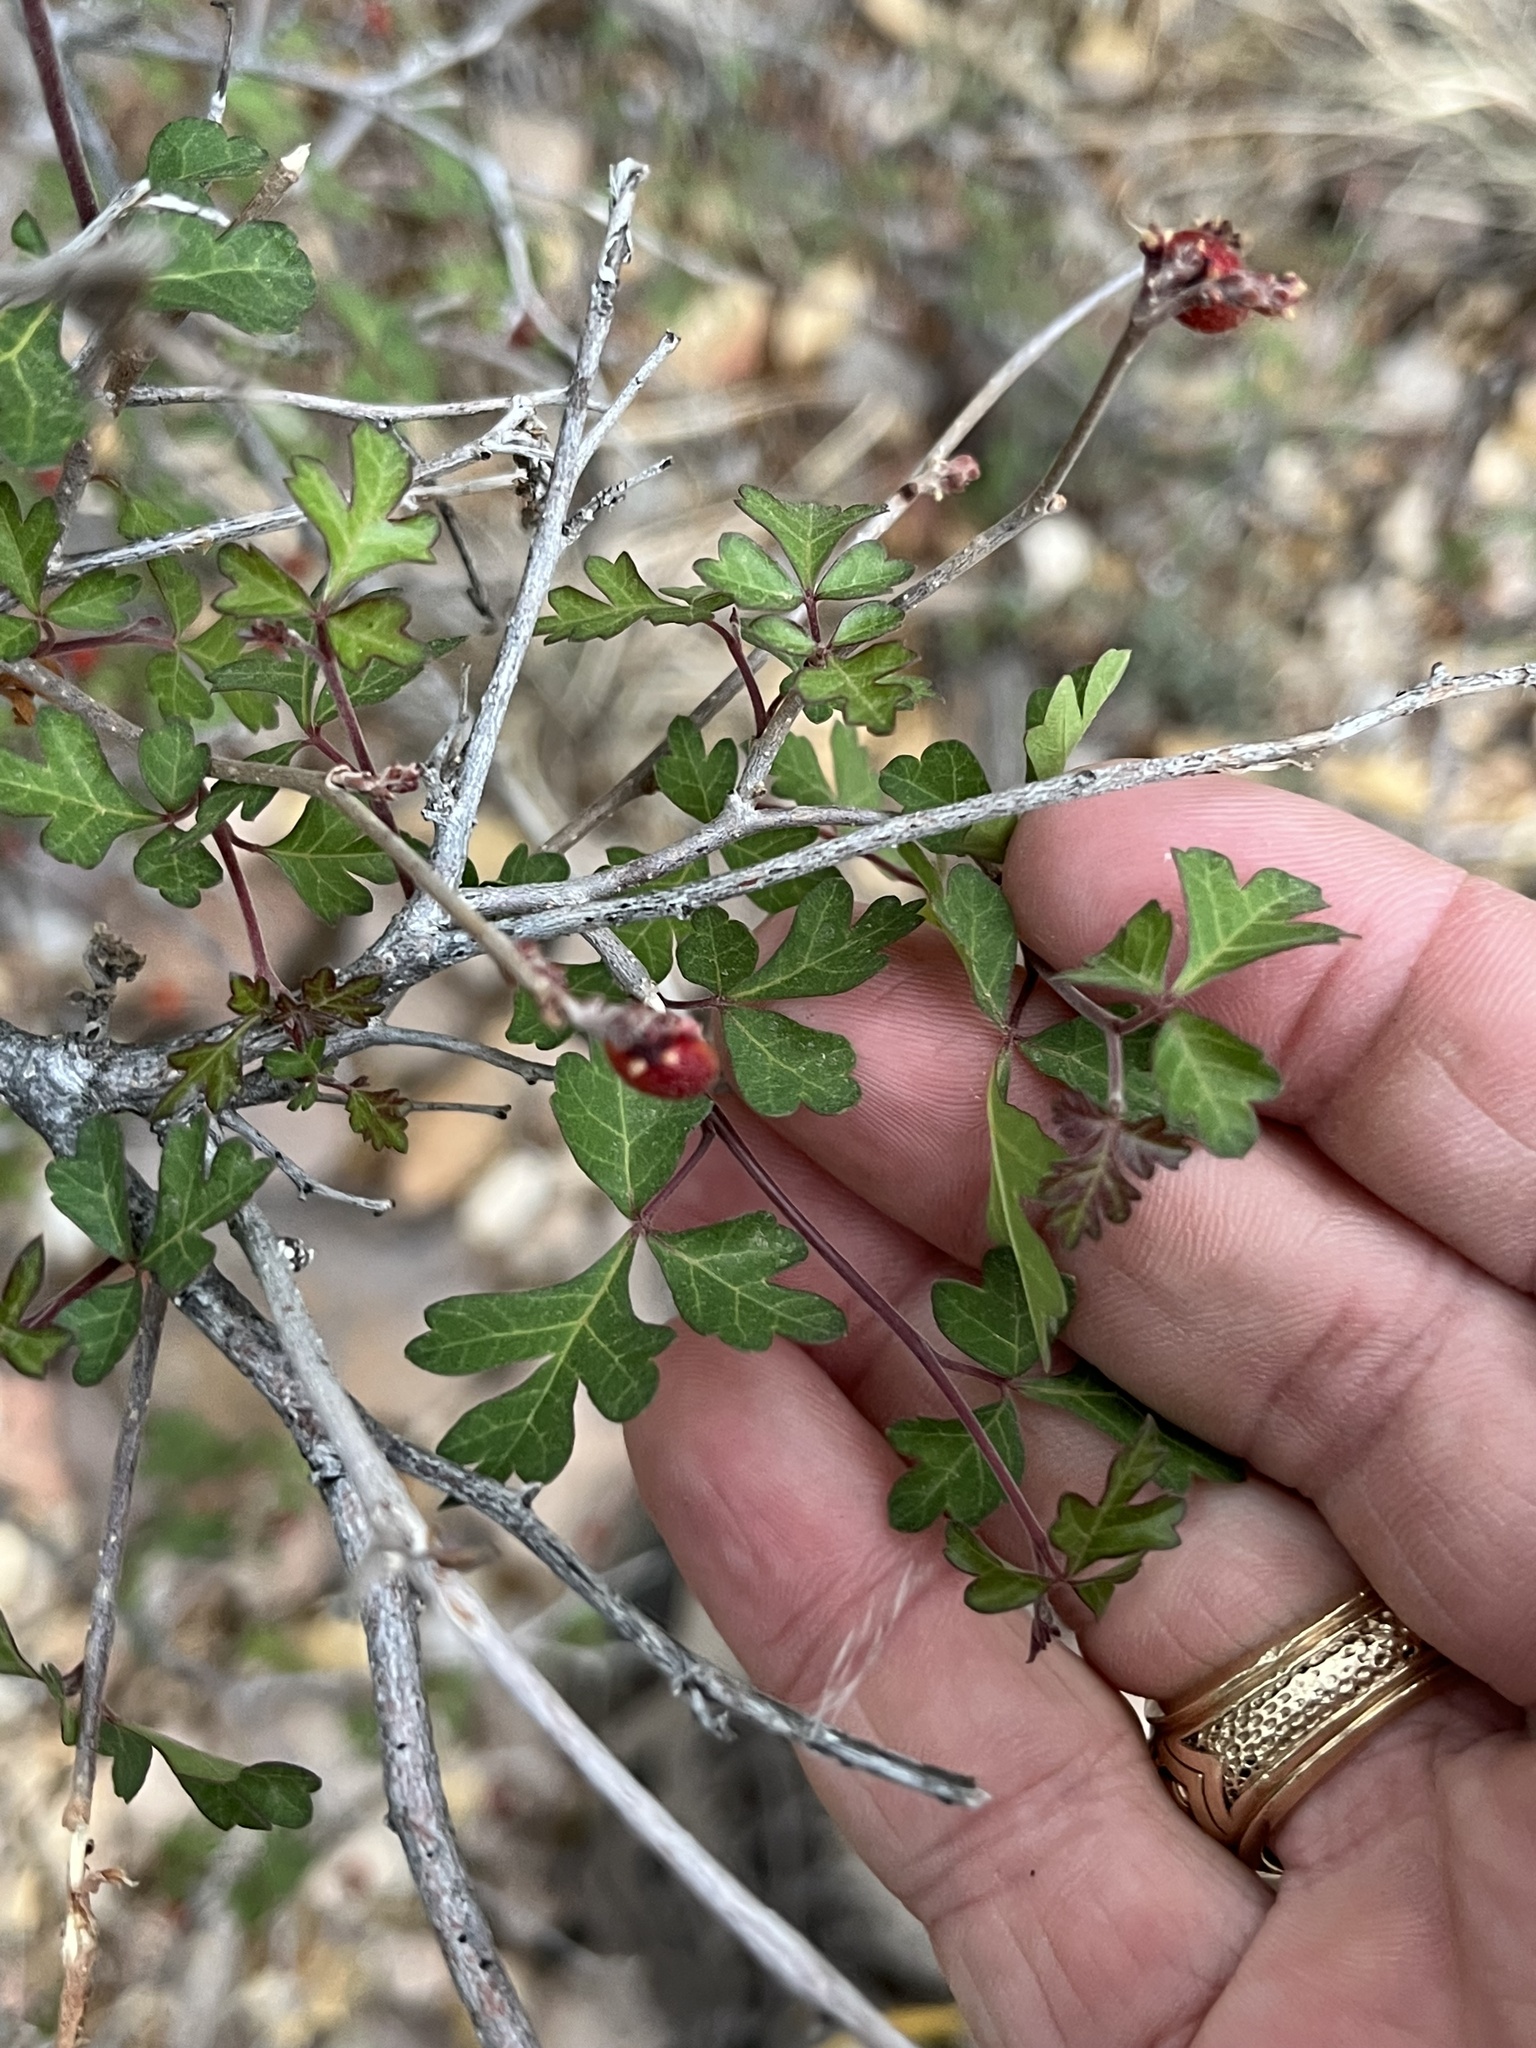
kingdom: Plantae
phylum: Tracheophyta
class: Magnoliopsida
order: Sapindales
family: Anacardiaceae
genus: Rhus
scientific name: Rhus aromatica
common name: Aromatic sumac
